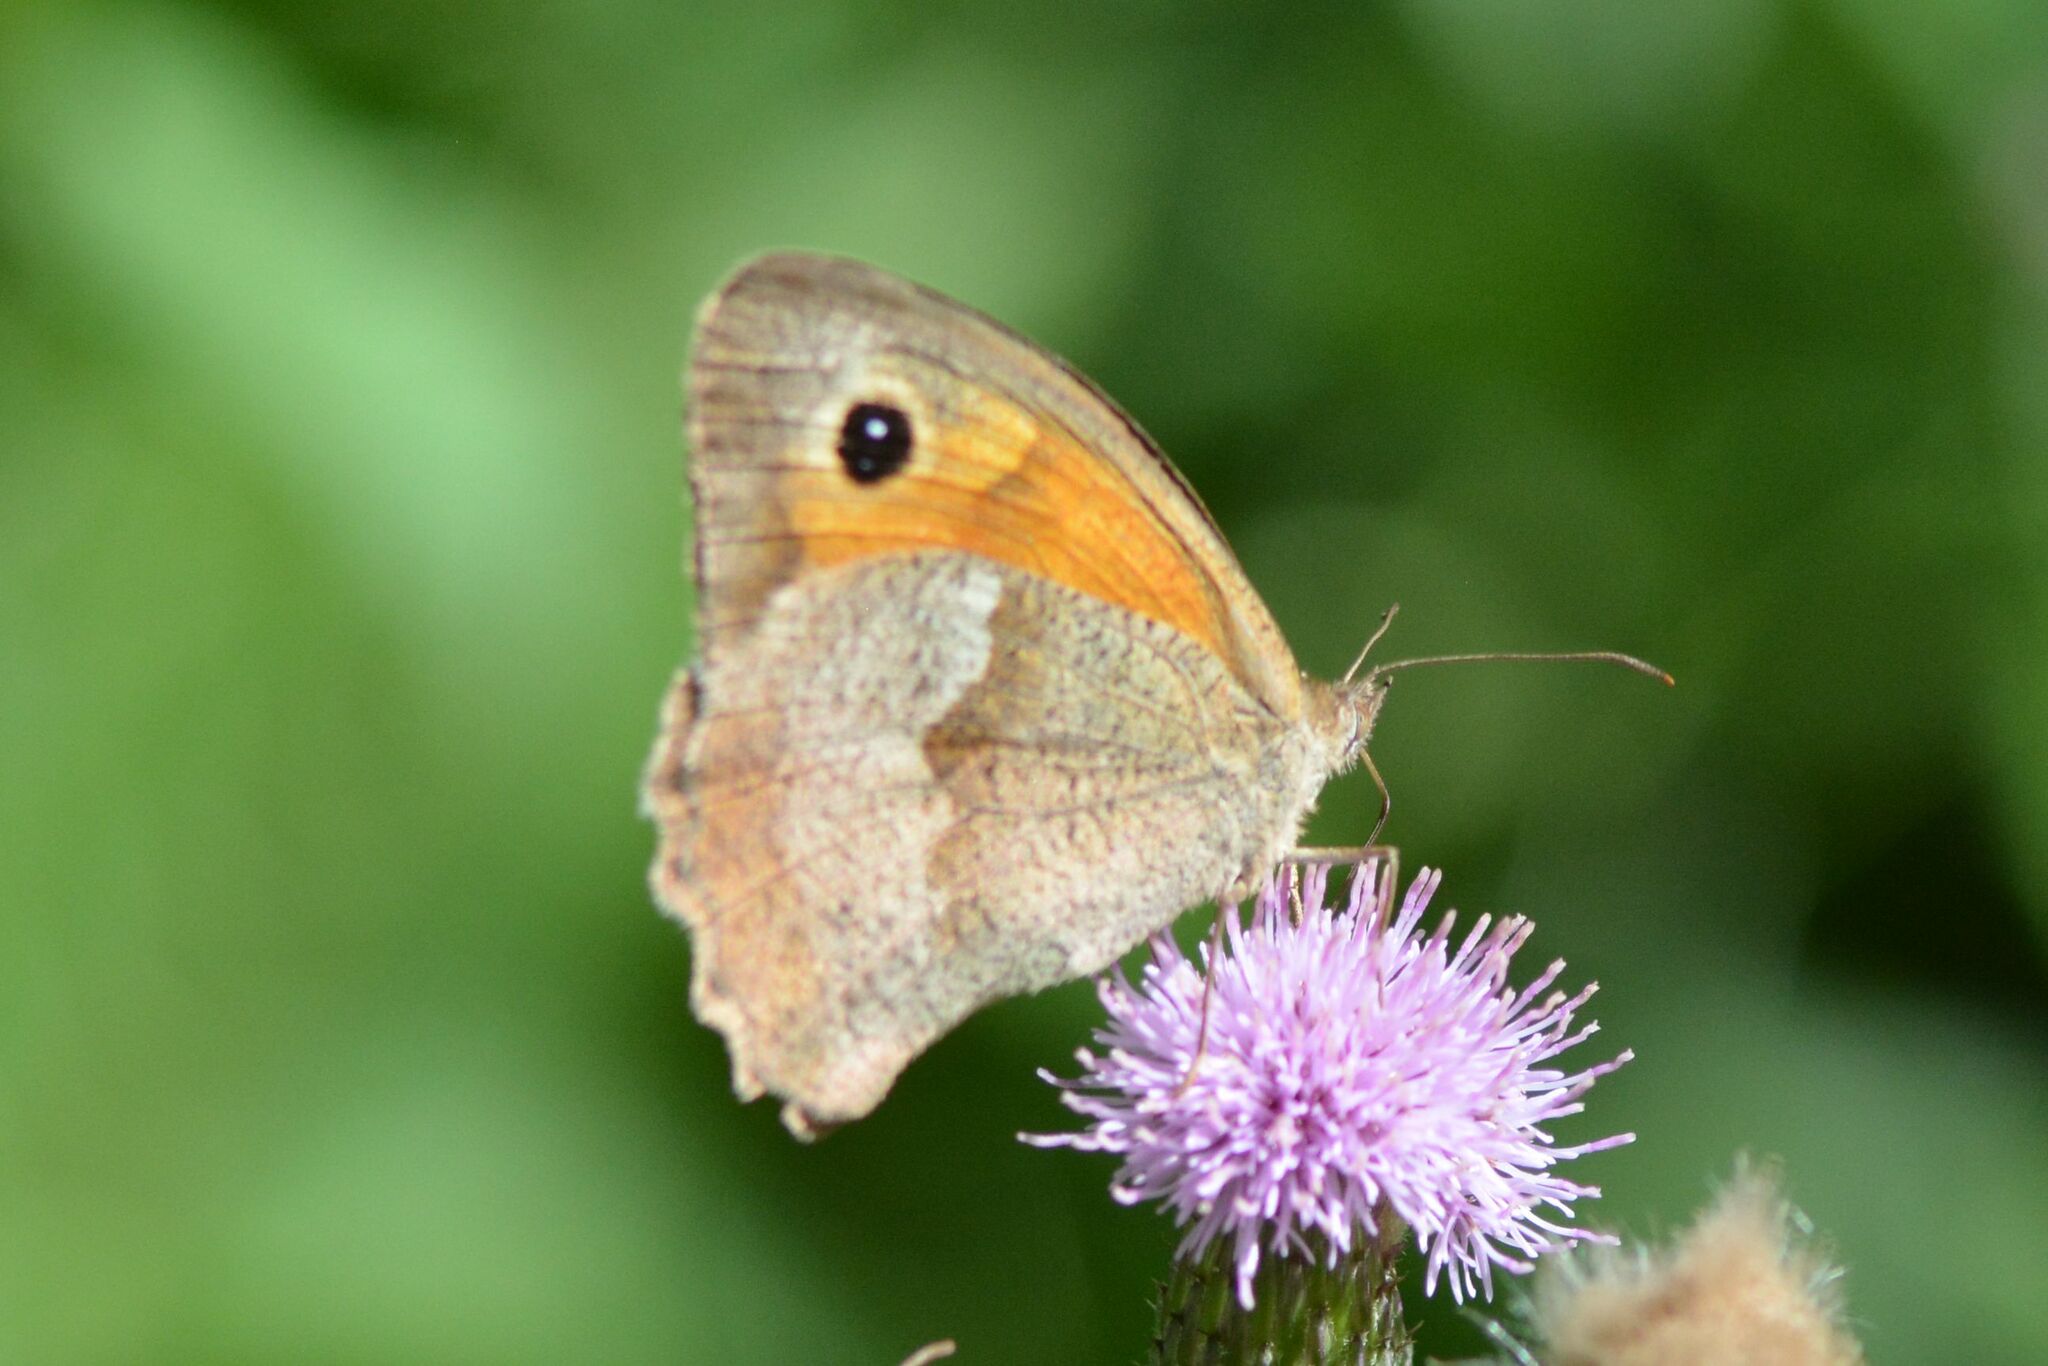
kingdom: Animalia
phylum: Arthropoda
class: Insecta
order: Lepidoptera
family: Nymphalidae
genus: Maniola
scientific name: Maniola jurtina
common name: Meadow brown
